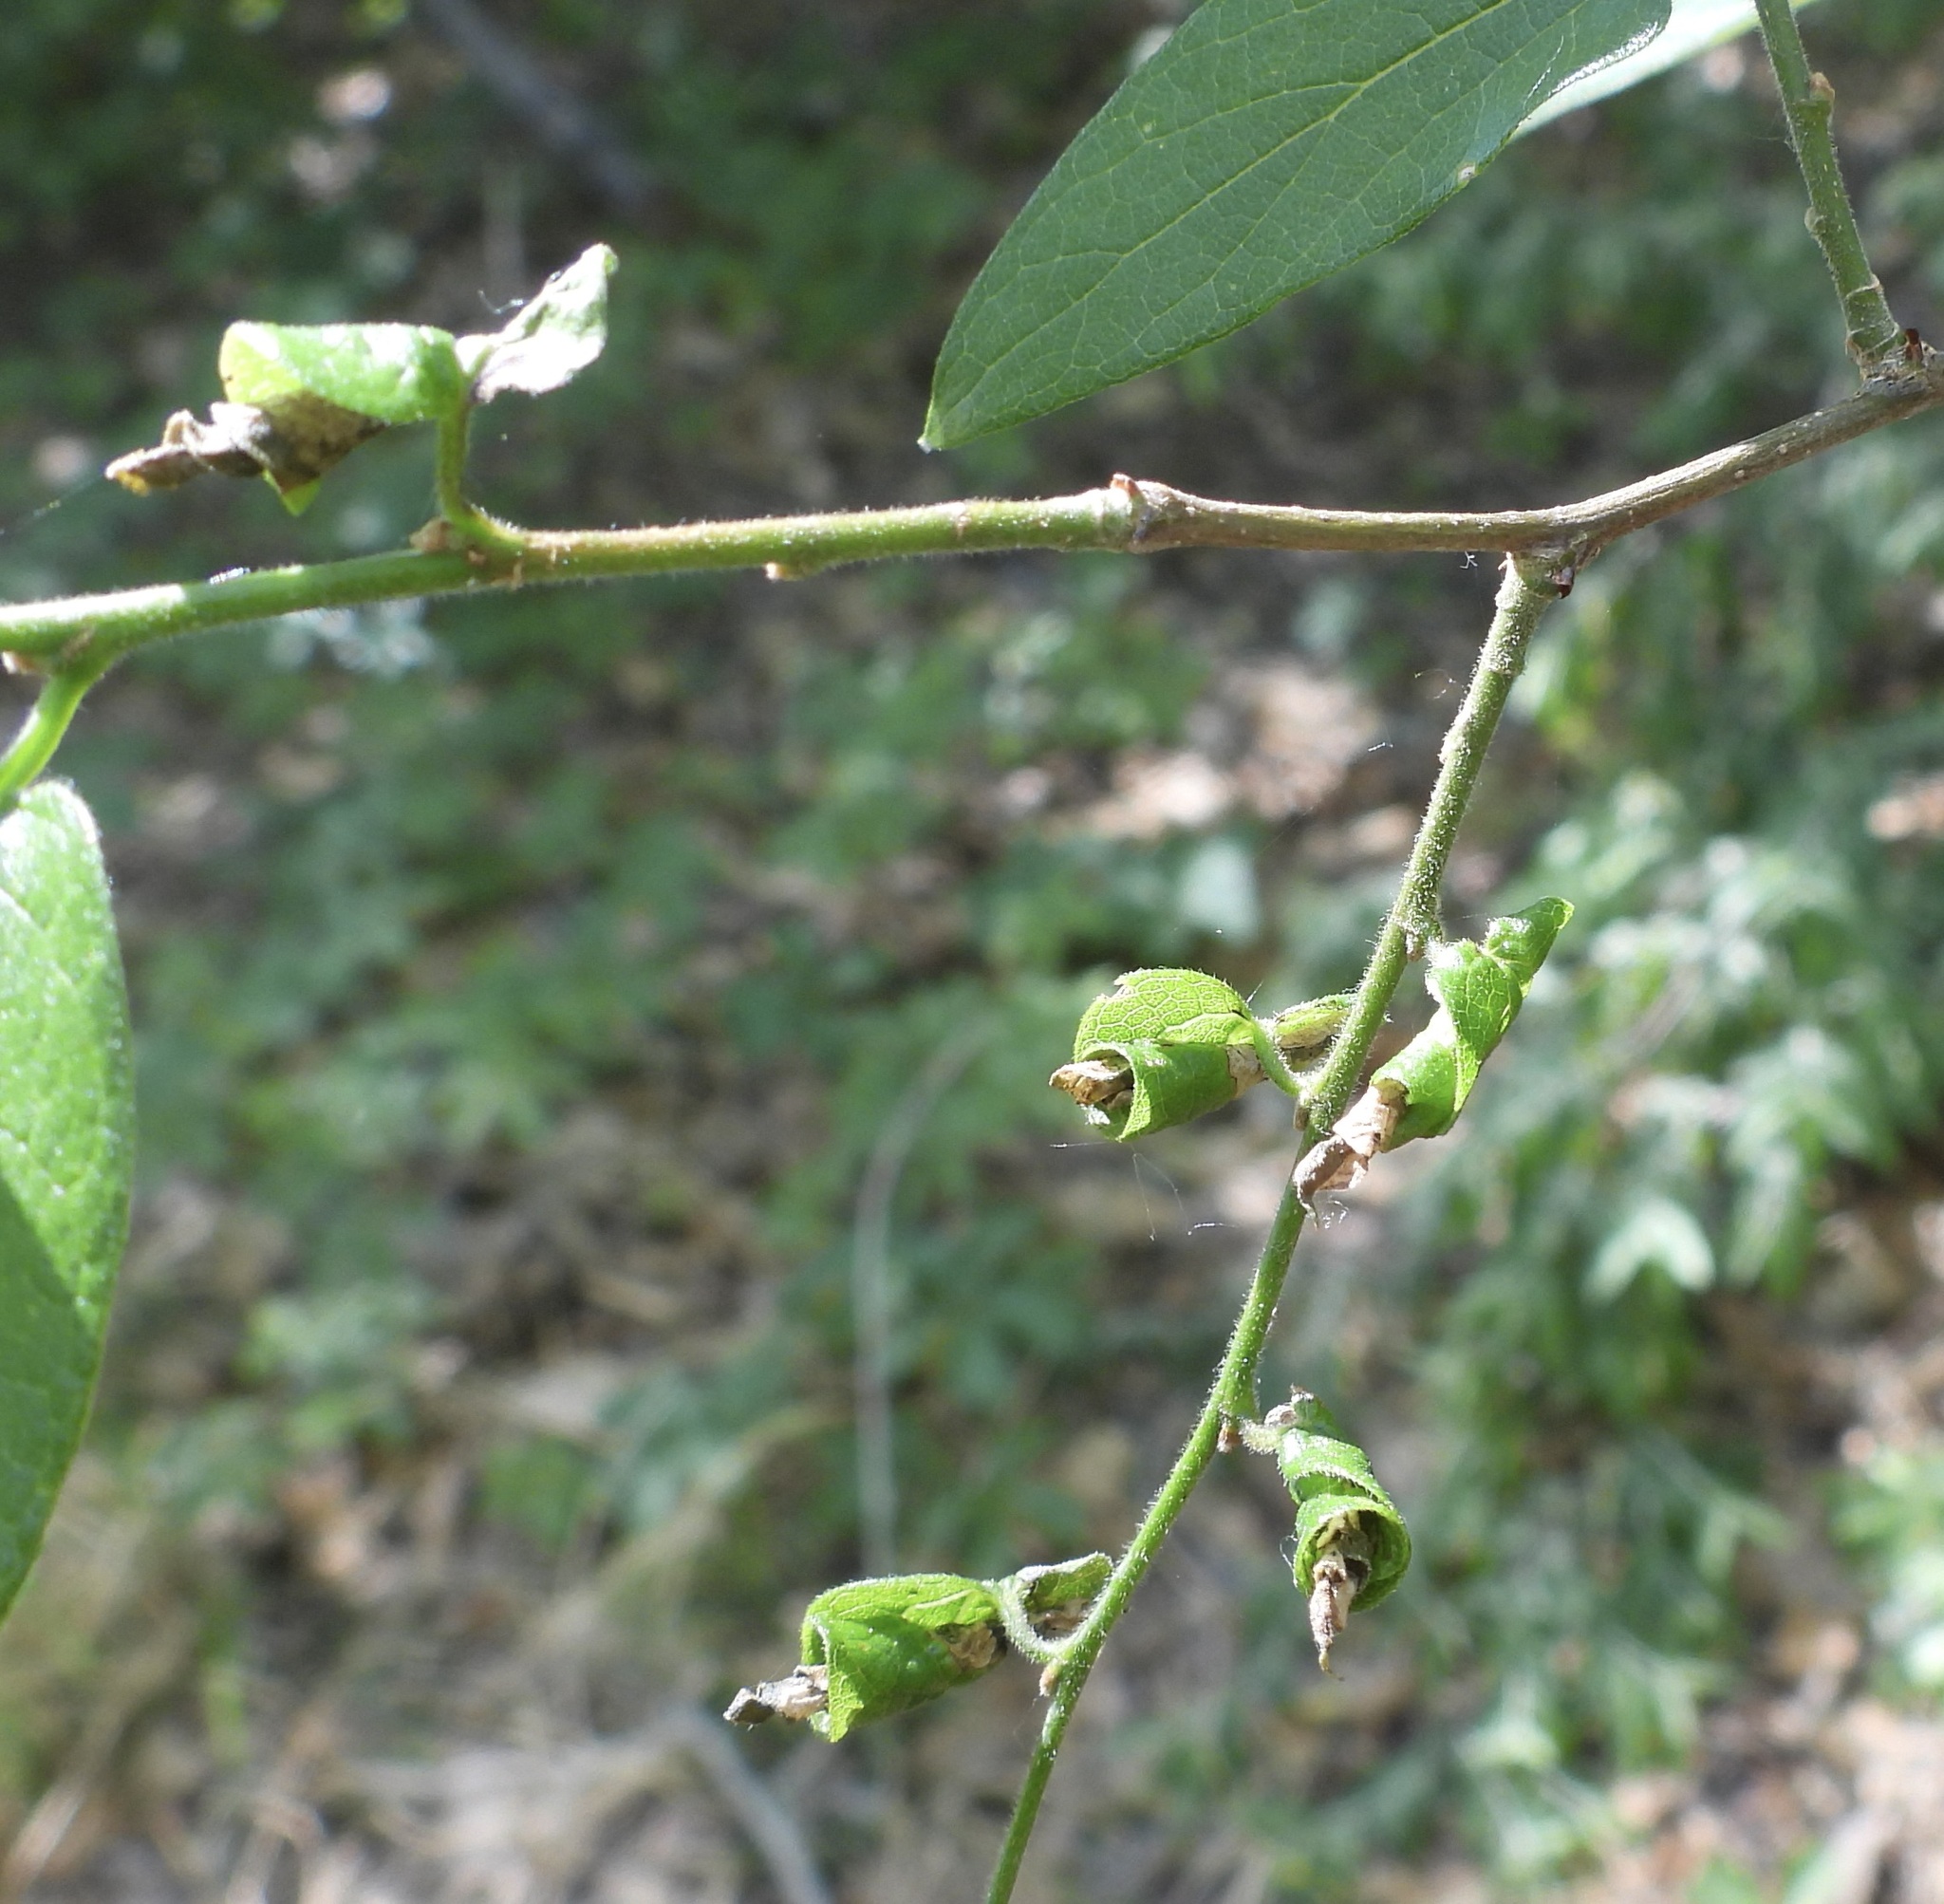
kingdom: Animalia
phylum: Arthropoda
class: Insecta
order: Diptera
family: Agromyzidae
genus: Agromyza
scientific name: Agromyza
